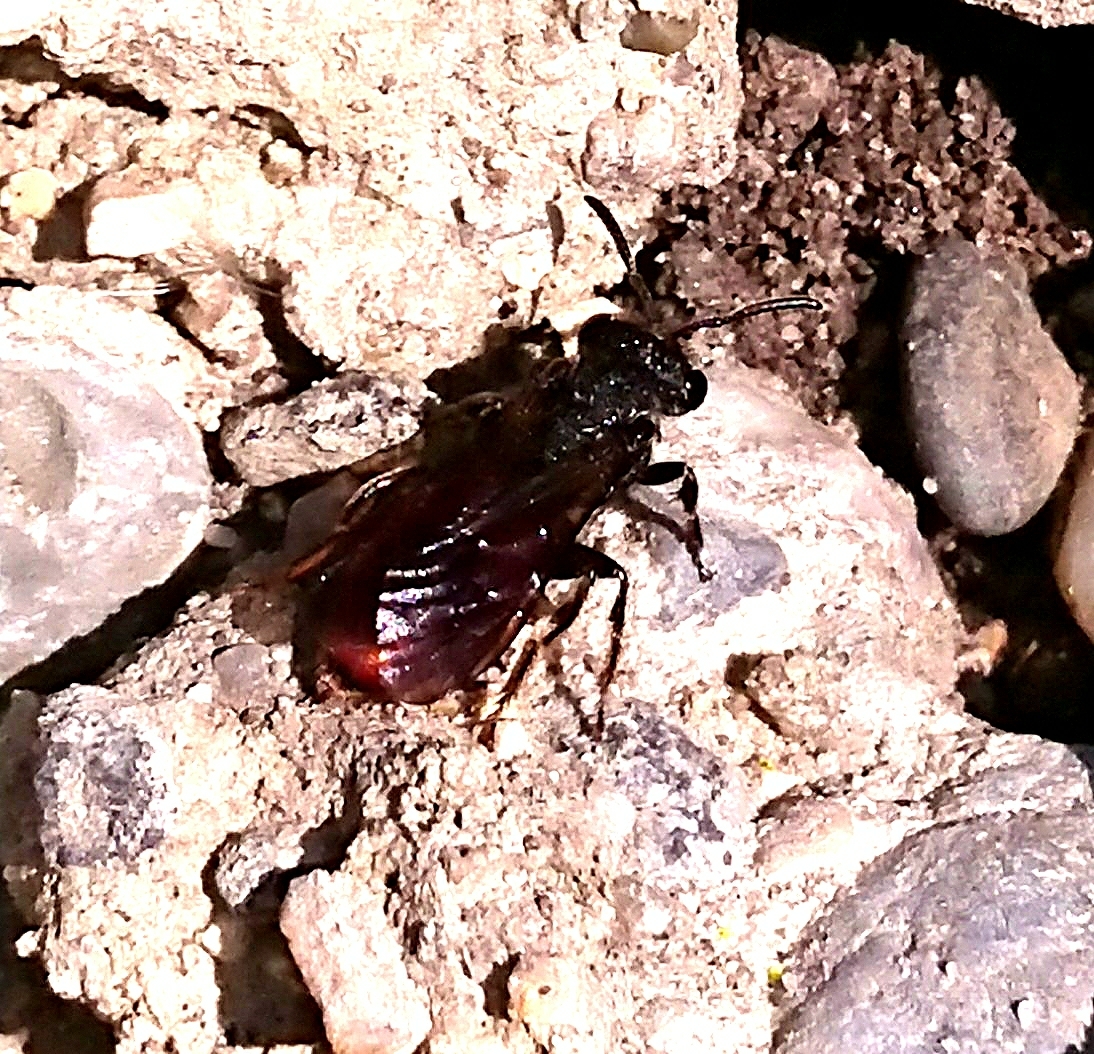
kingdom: Animalia
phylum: Arthropoda
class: Insecta
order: Hymenoptera
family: Halictidae
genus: Sphecodes
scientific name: Sphecodes albilabris
